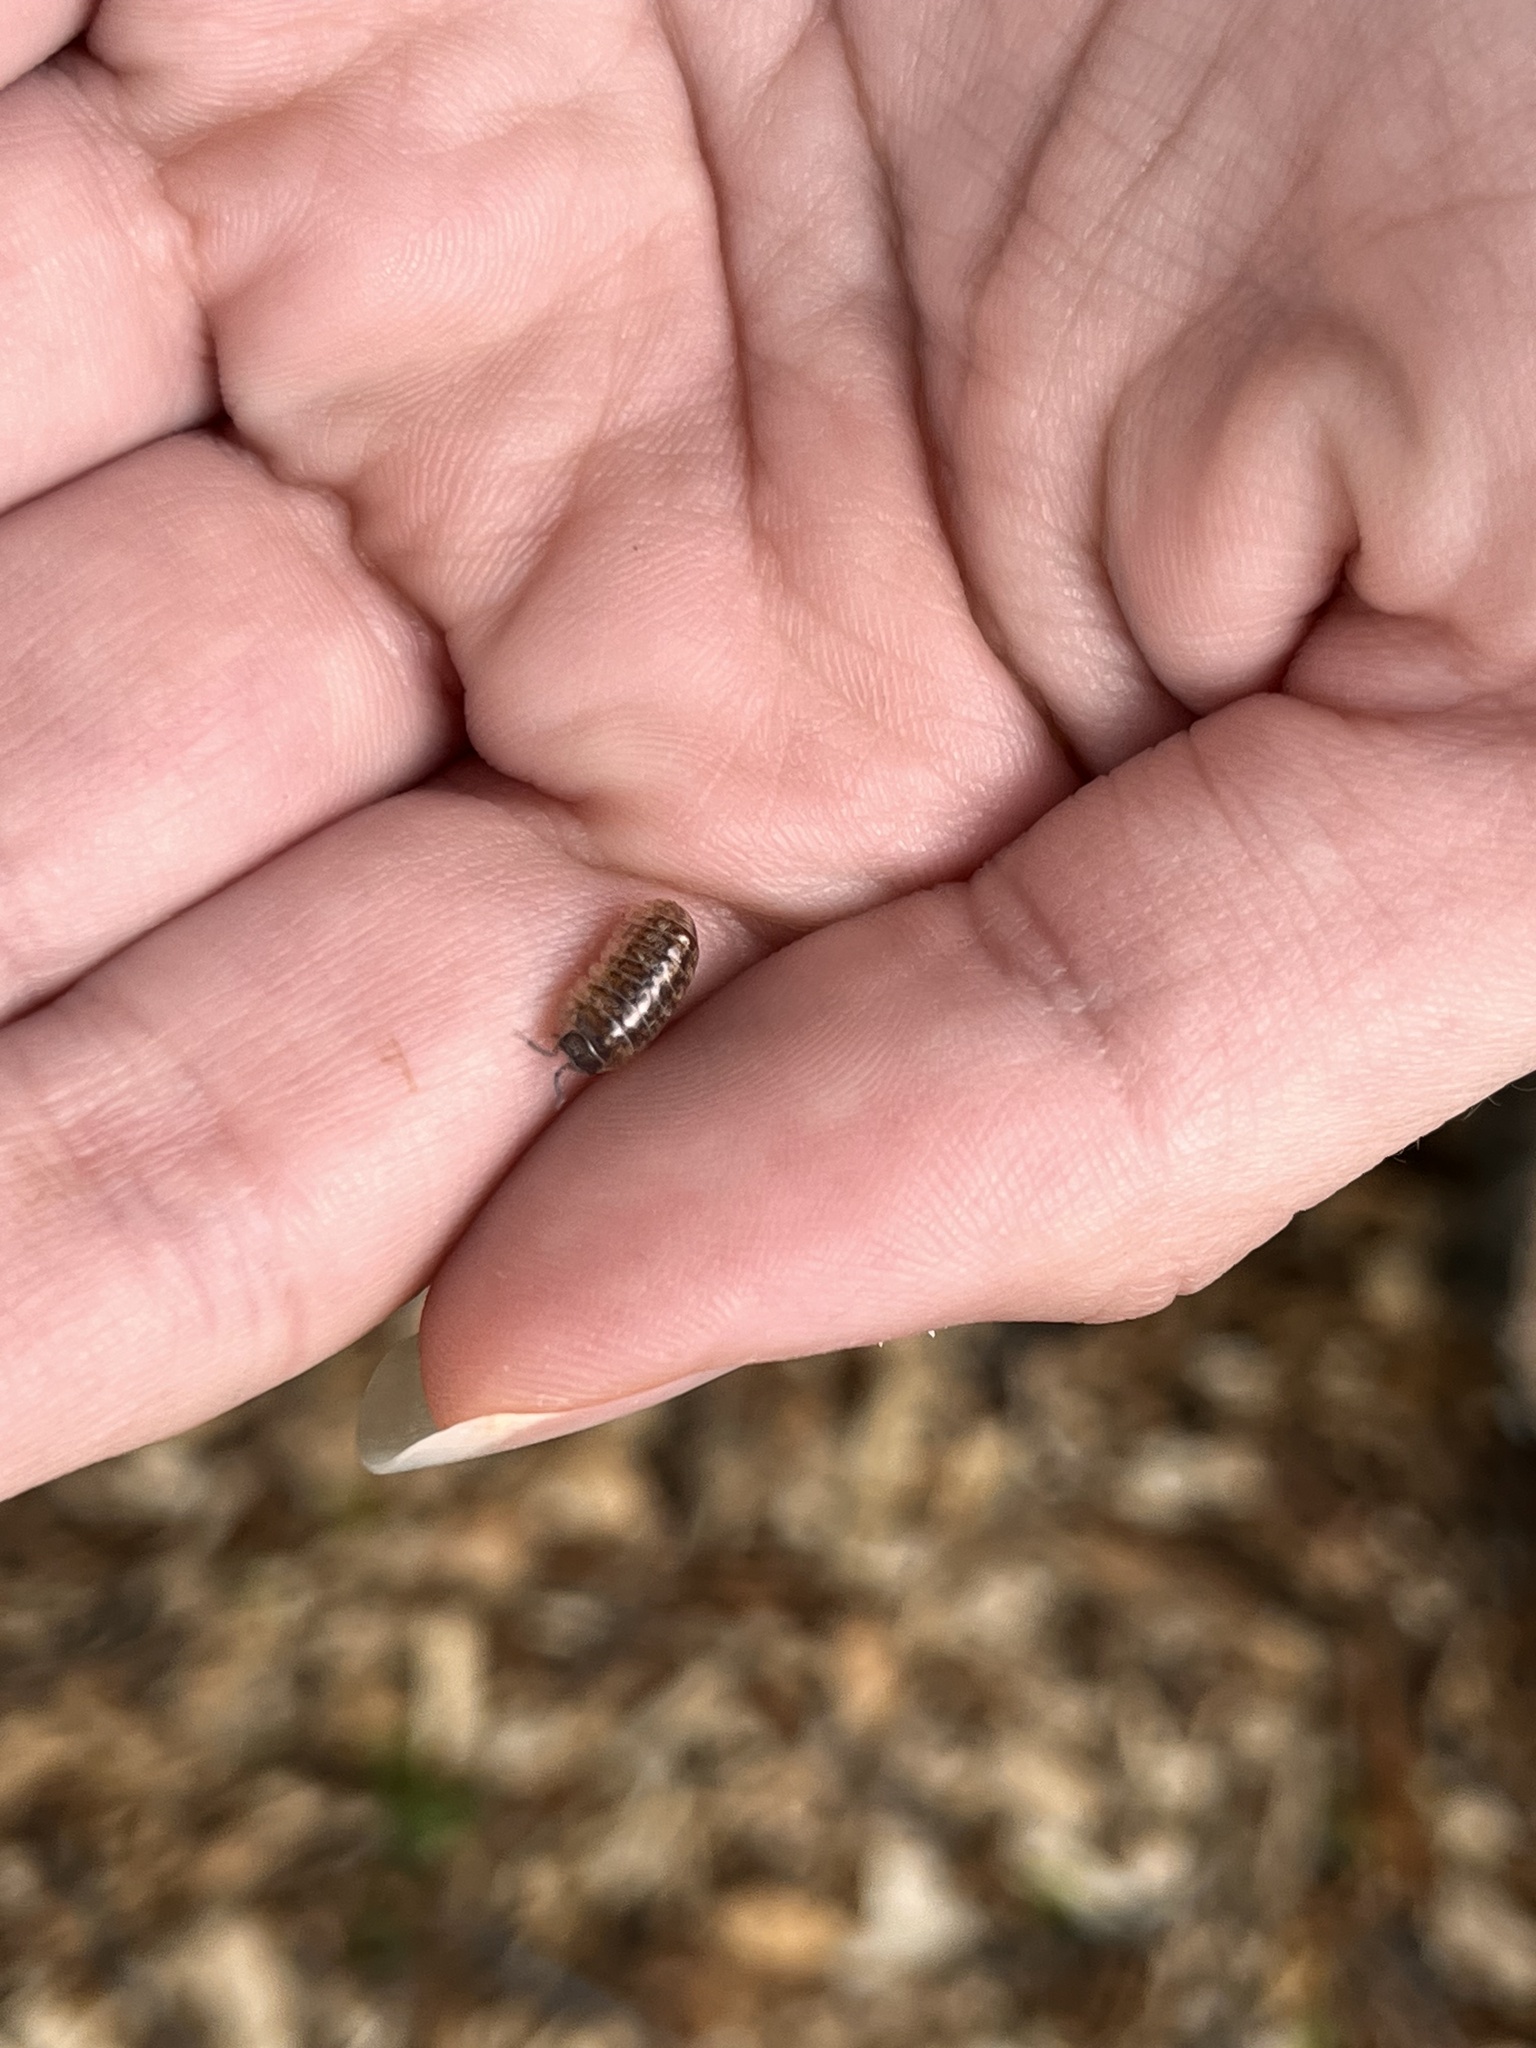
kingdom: Animalia
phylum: Arthropoda
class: Malacostraca
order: Isopoda
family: Armadillidiidae
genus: Armadillidium
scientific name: Armadillidium vulgare
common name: Common pill woodlouse
